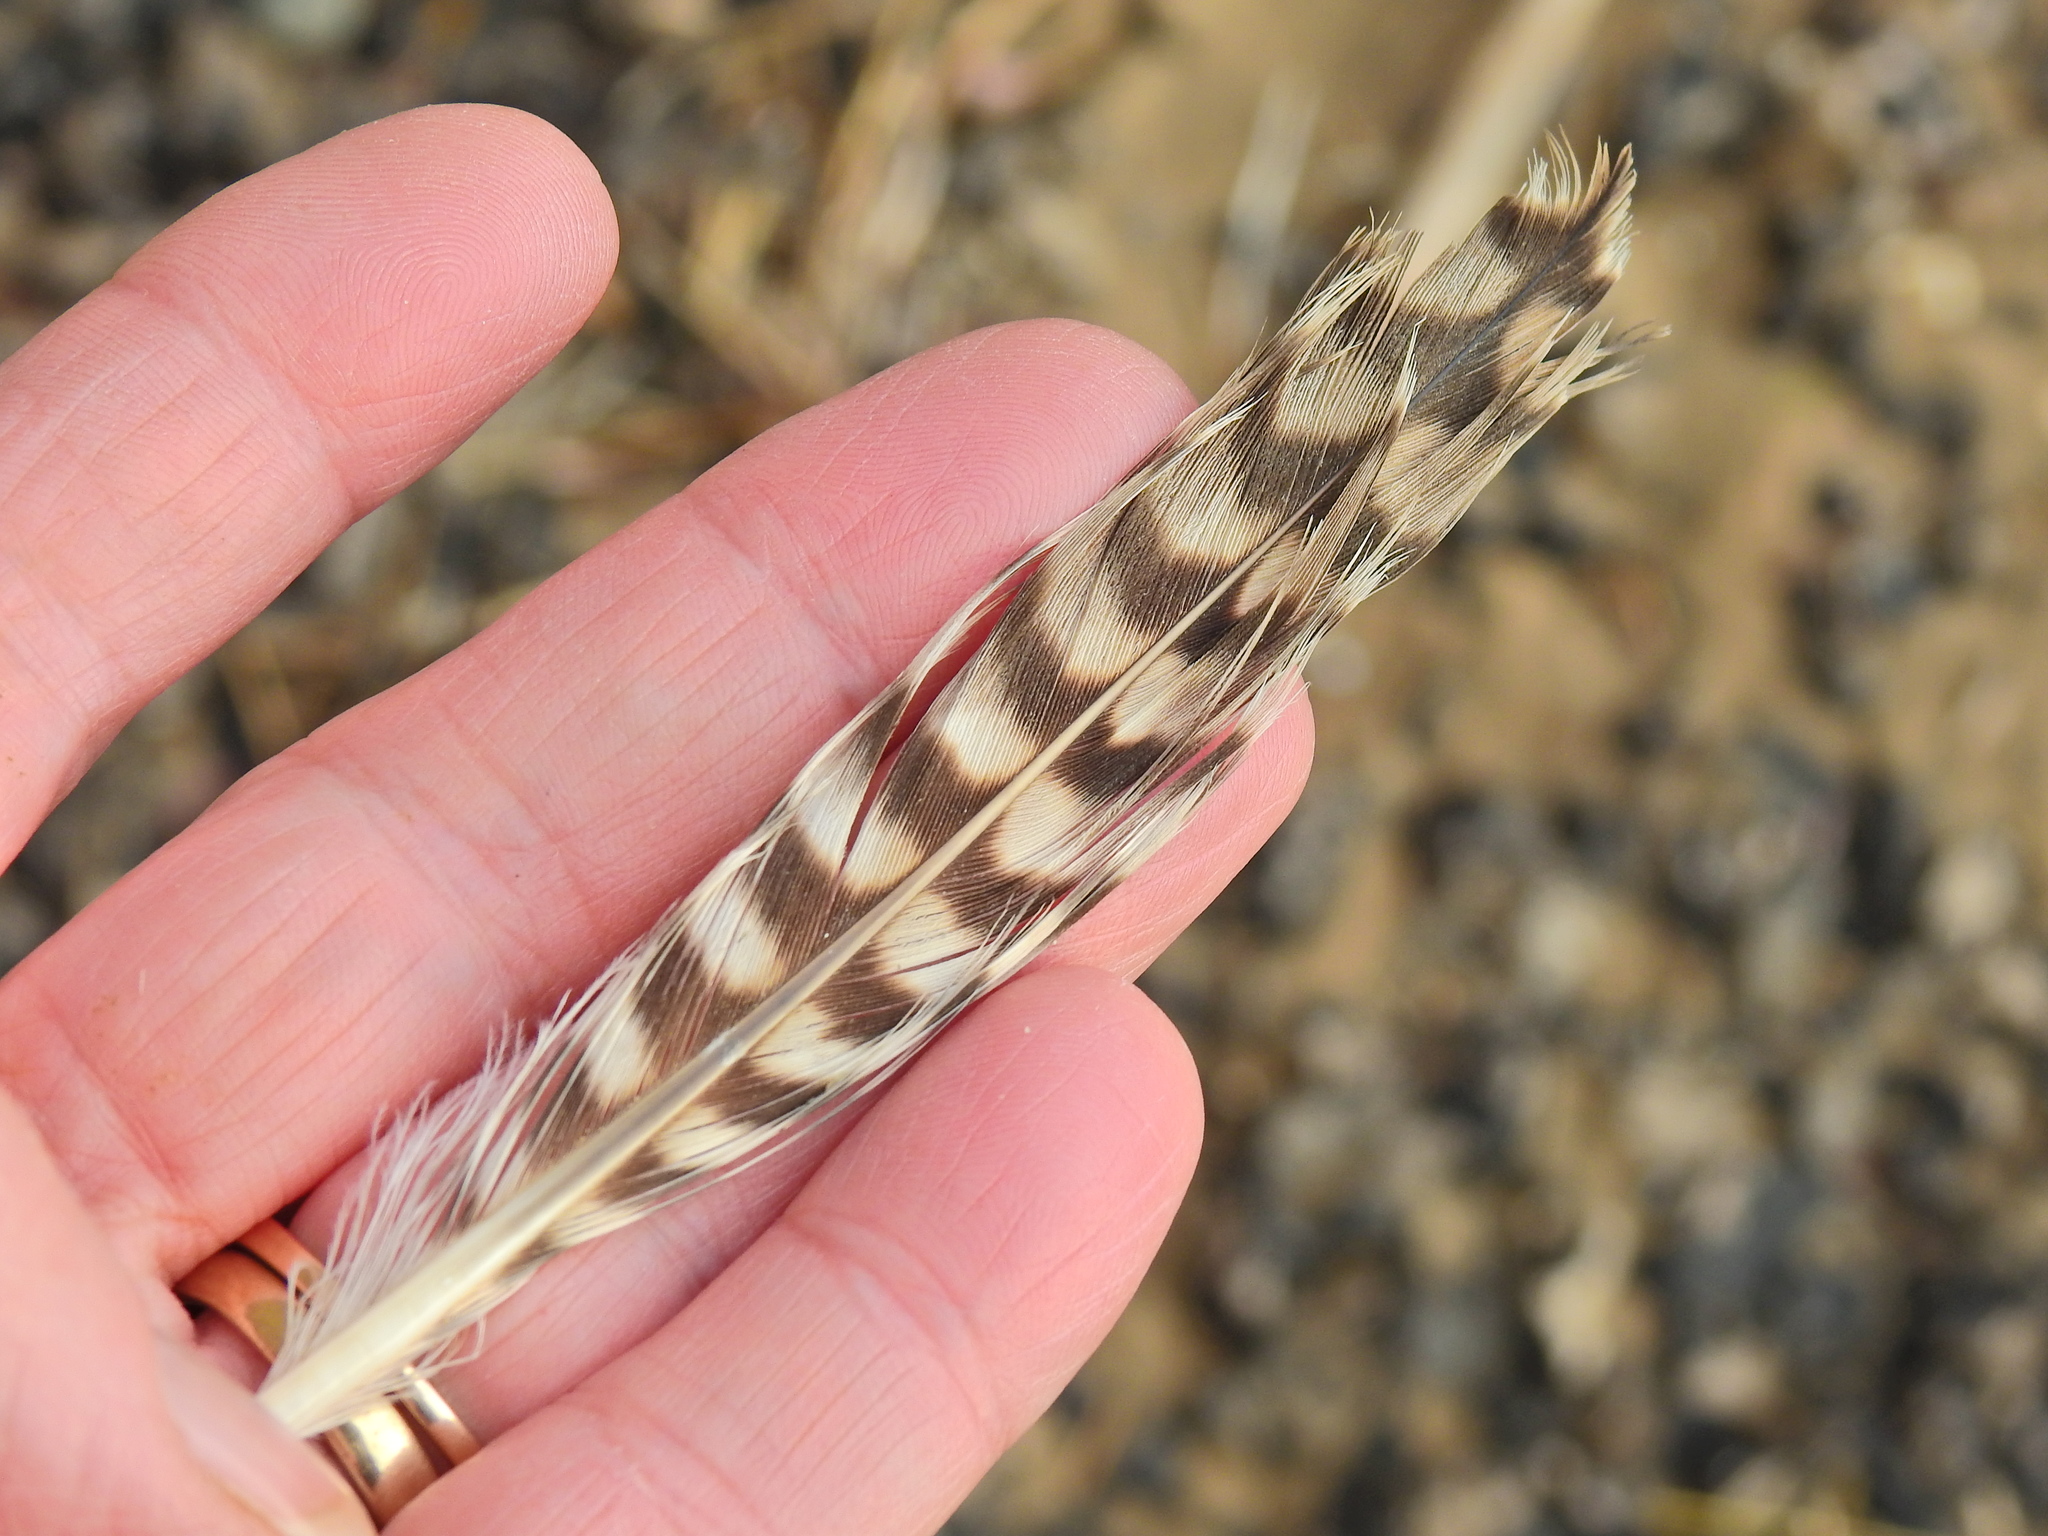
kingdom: Animalia
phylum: Chordata
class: Aves
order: Charadriiformes
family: Scolopacidae
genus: Numenius
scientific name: Numenius arquata
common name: Eurasian curlew
